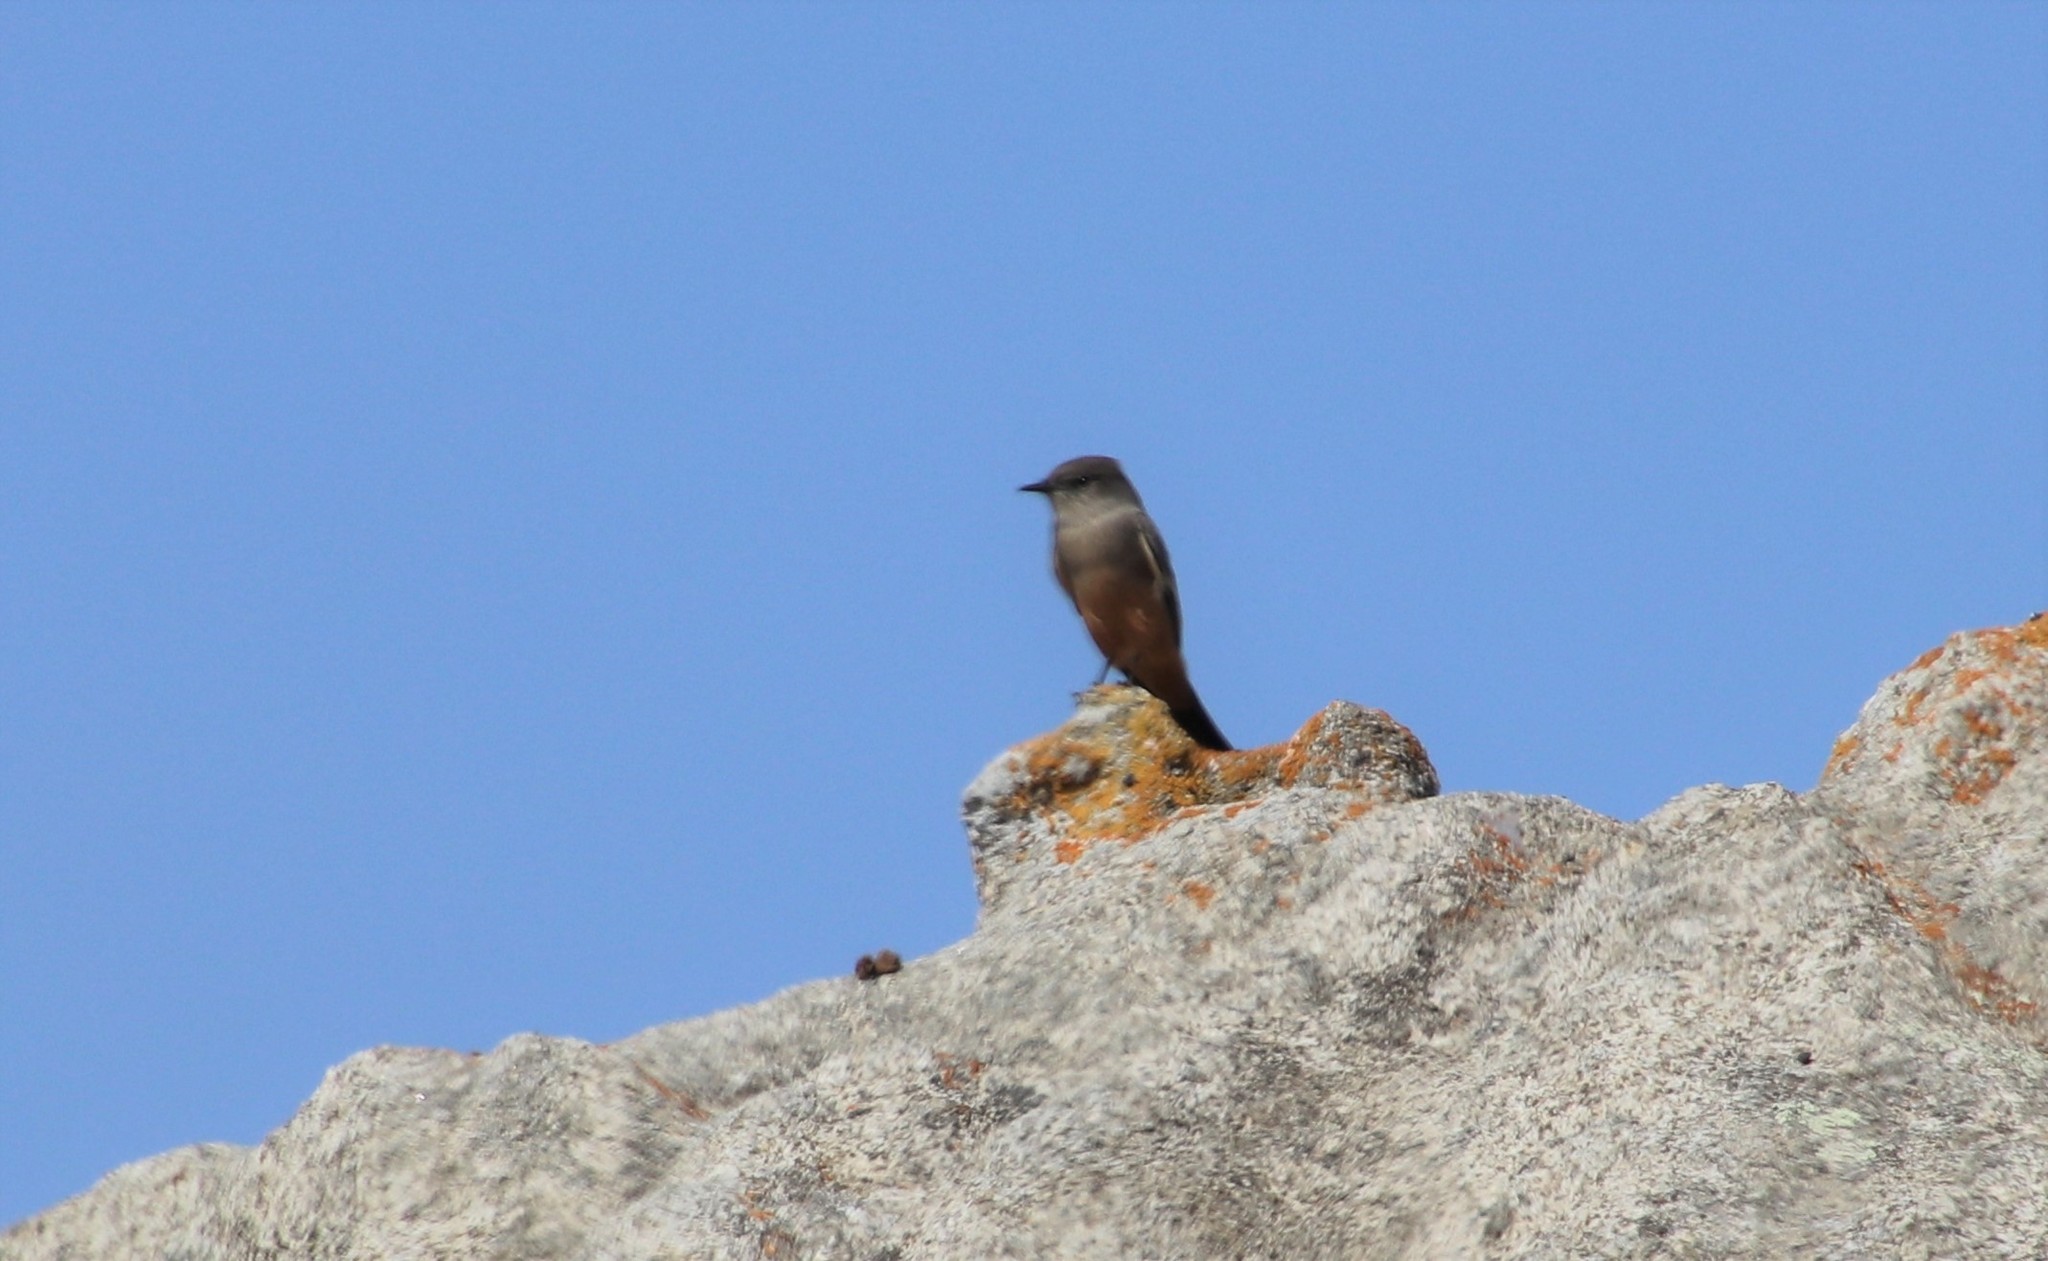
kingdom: Animalia
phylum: Chordata
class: Aves
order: Passeriformes
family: Tyrannidae
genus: Sayornis
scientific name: Sayornis saya
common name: Say's phoebe
